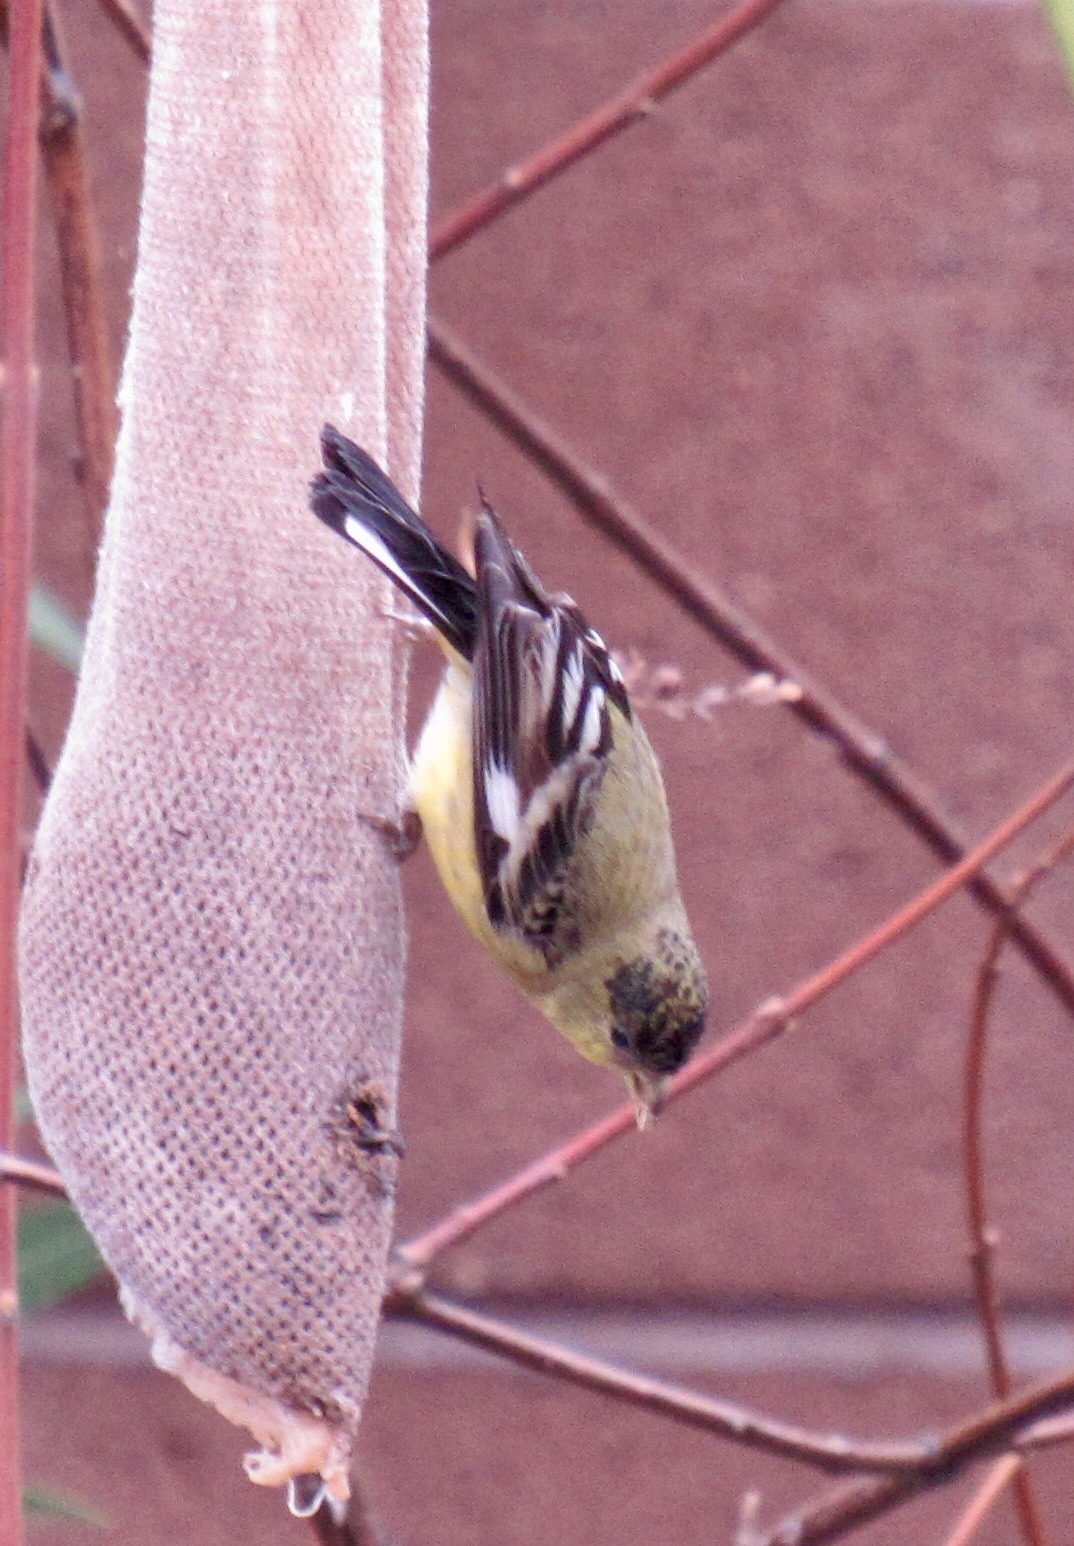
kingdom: Animalia
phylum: Chordata
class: Aves
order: Passeriformes
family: Fringillidae
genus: Spinus
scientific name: Spinus psaltria
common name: Lesser goldfinch
